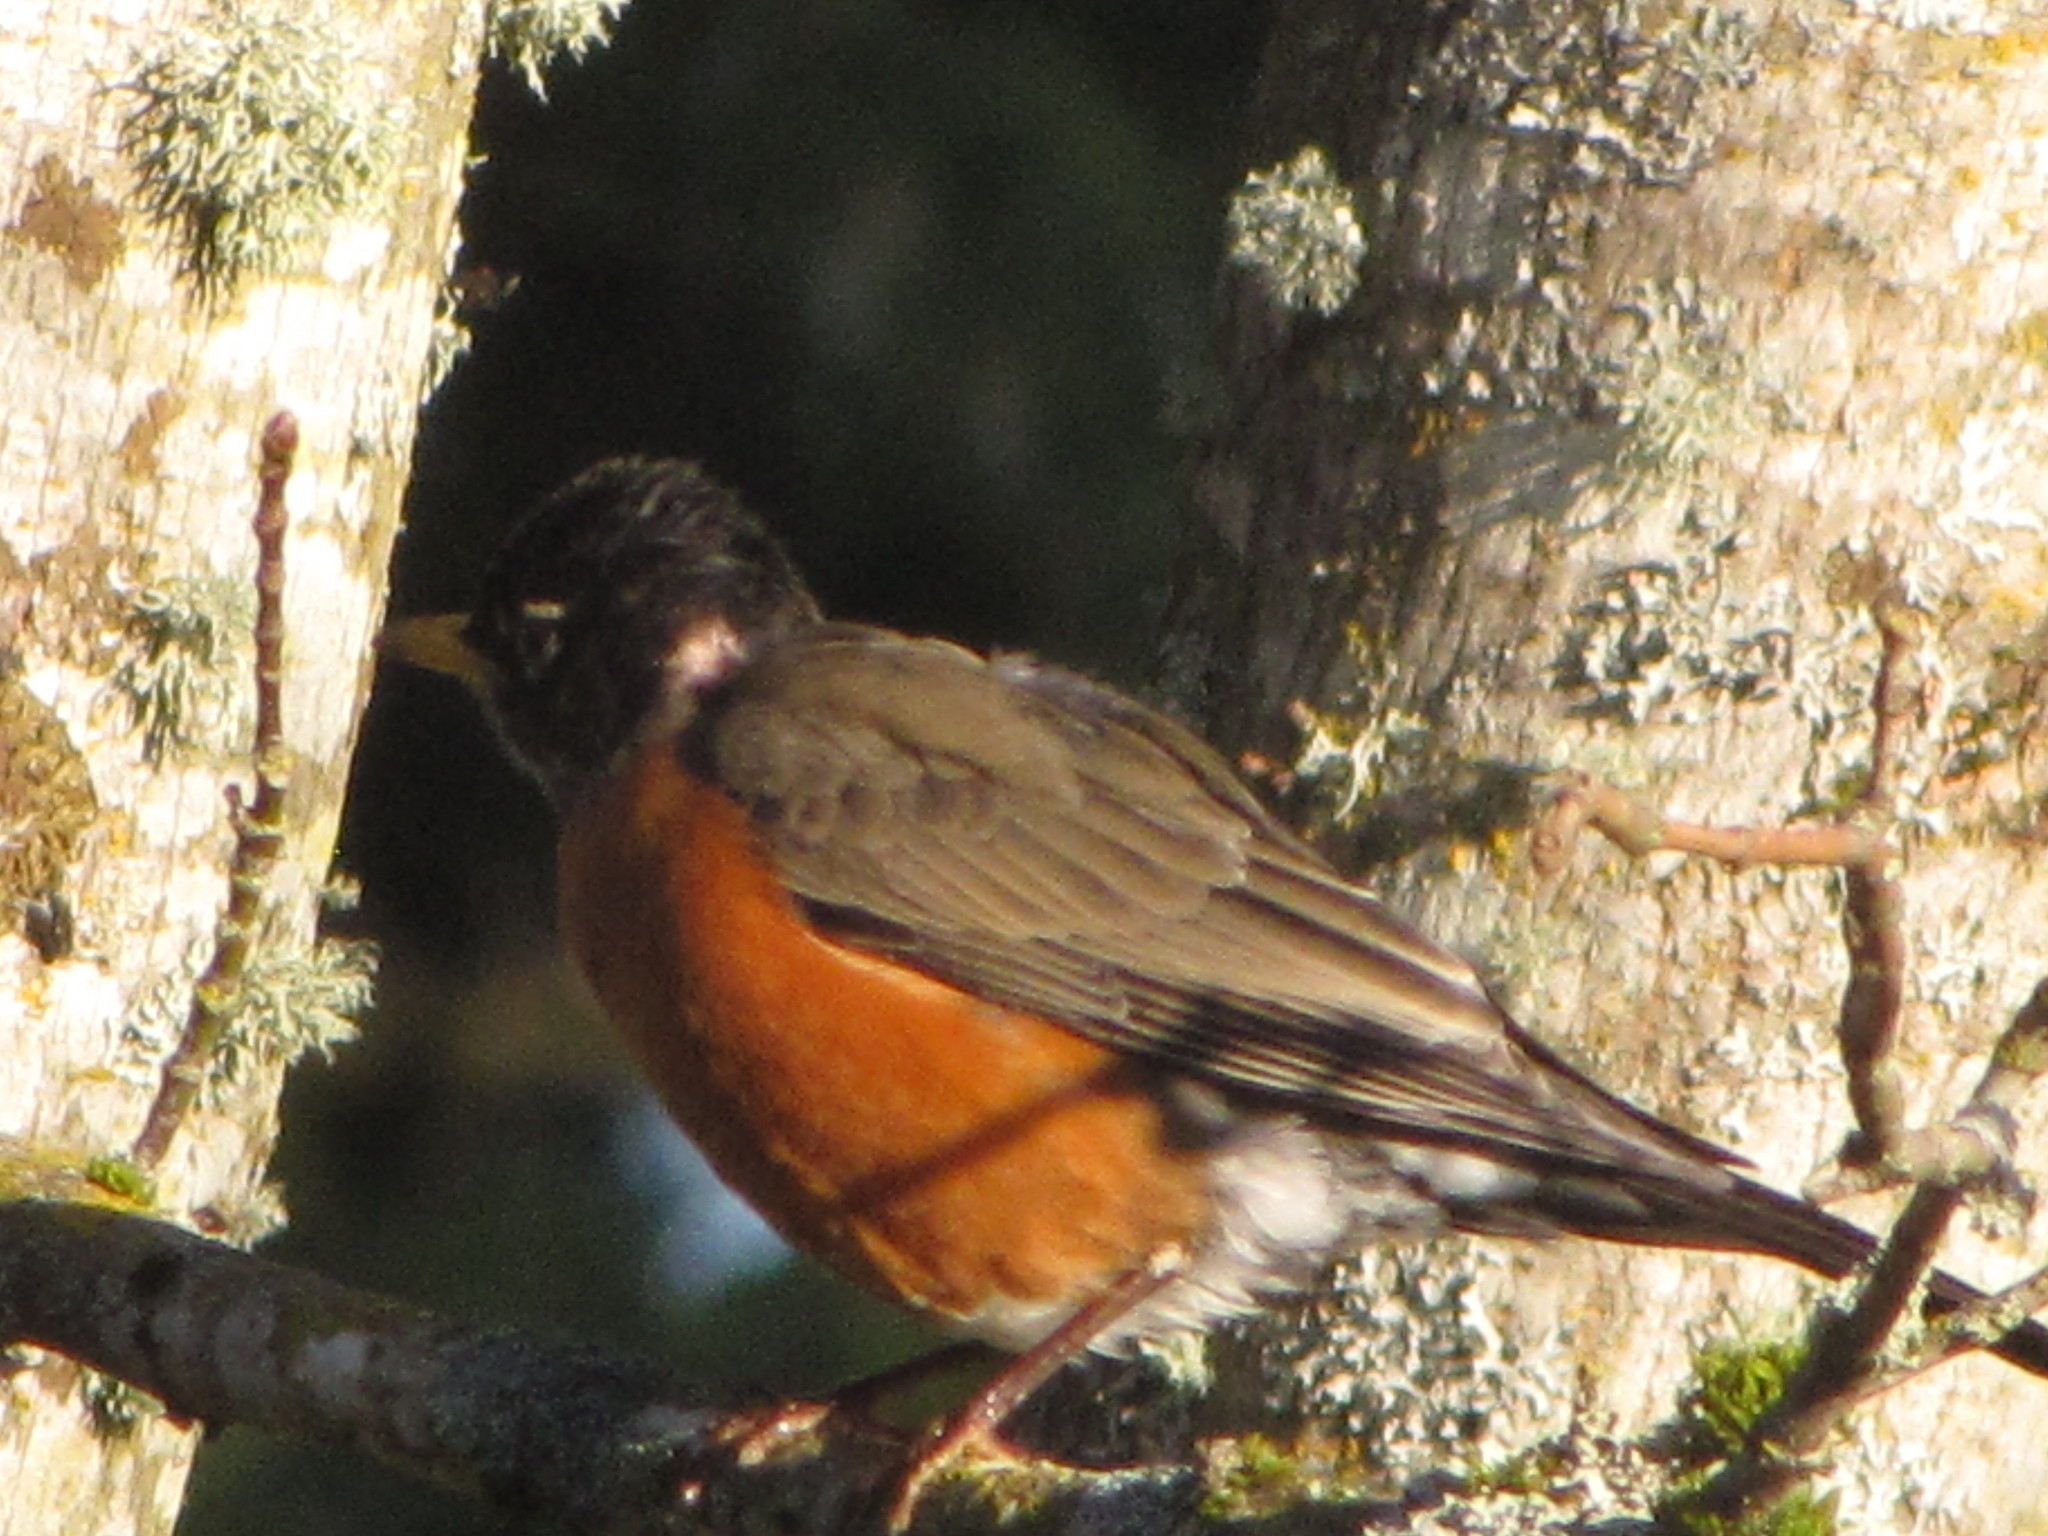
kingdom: Animalia
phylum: Chordata
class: Aves
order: Passeriformes
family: Turdidae
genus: Turdus
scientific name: Turdus migratorius
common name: American robin
